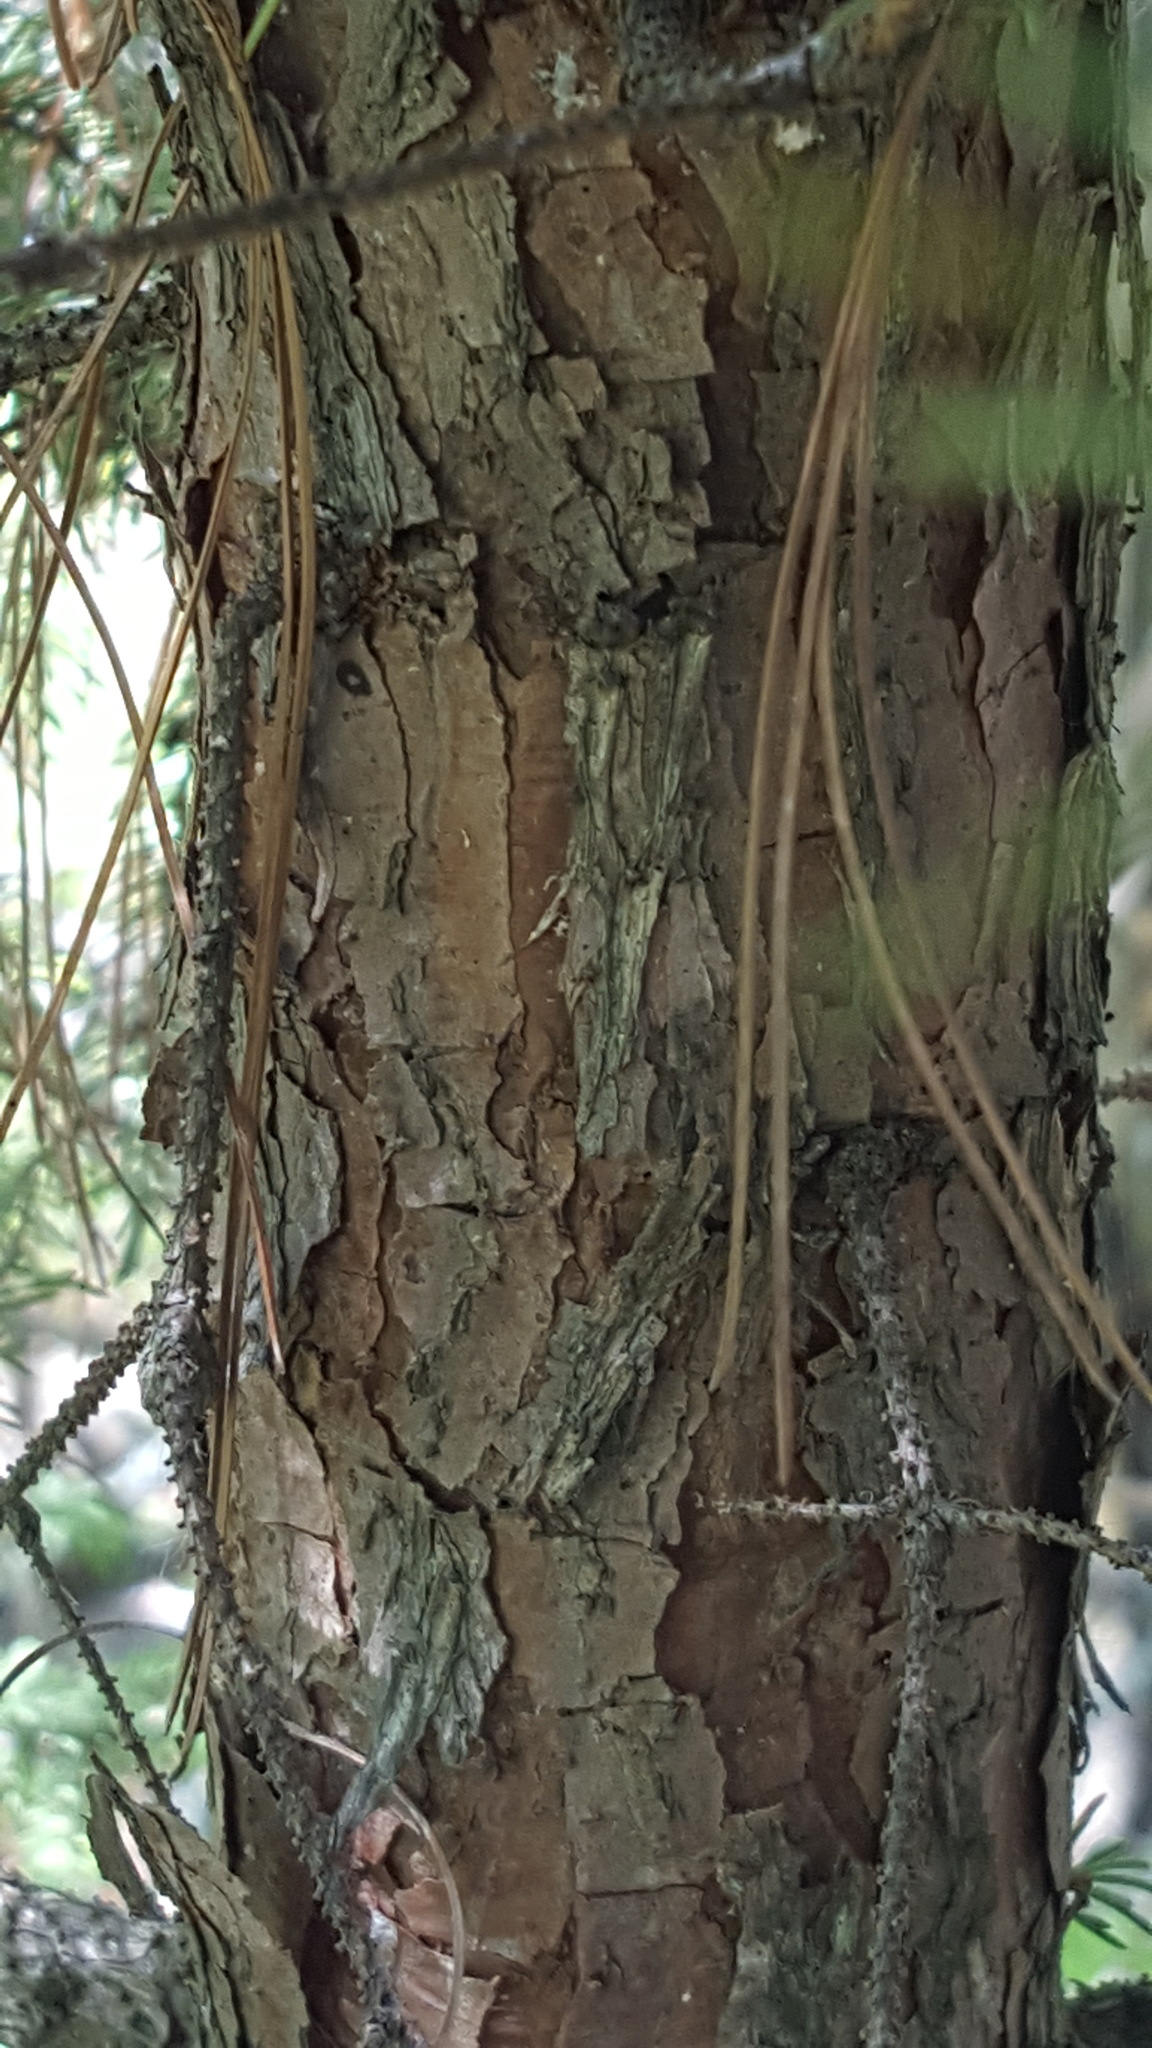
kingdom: Plantae
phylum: Tracheophyta
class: Pinopsida
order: Pinales
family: Pinaceae
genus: Picea
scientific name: Picea glauca
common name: White spruce
